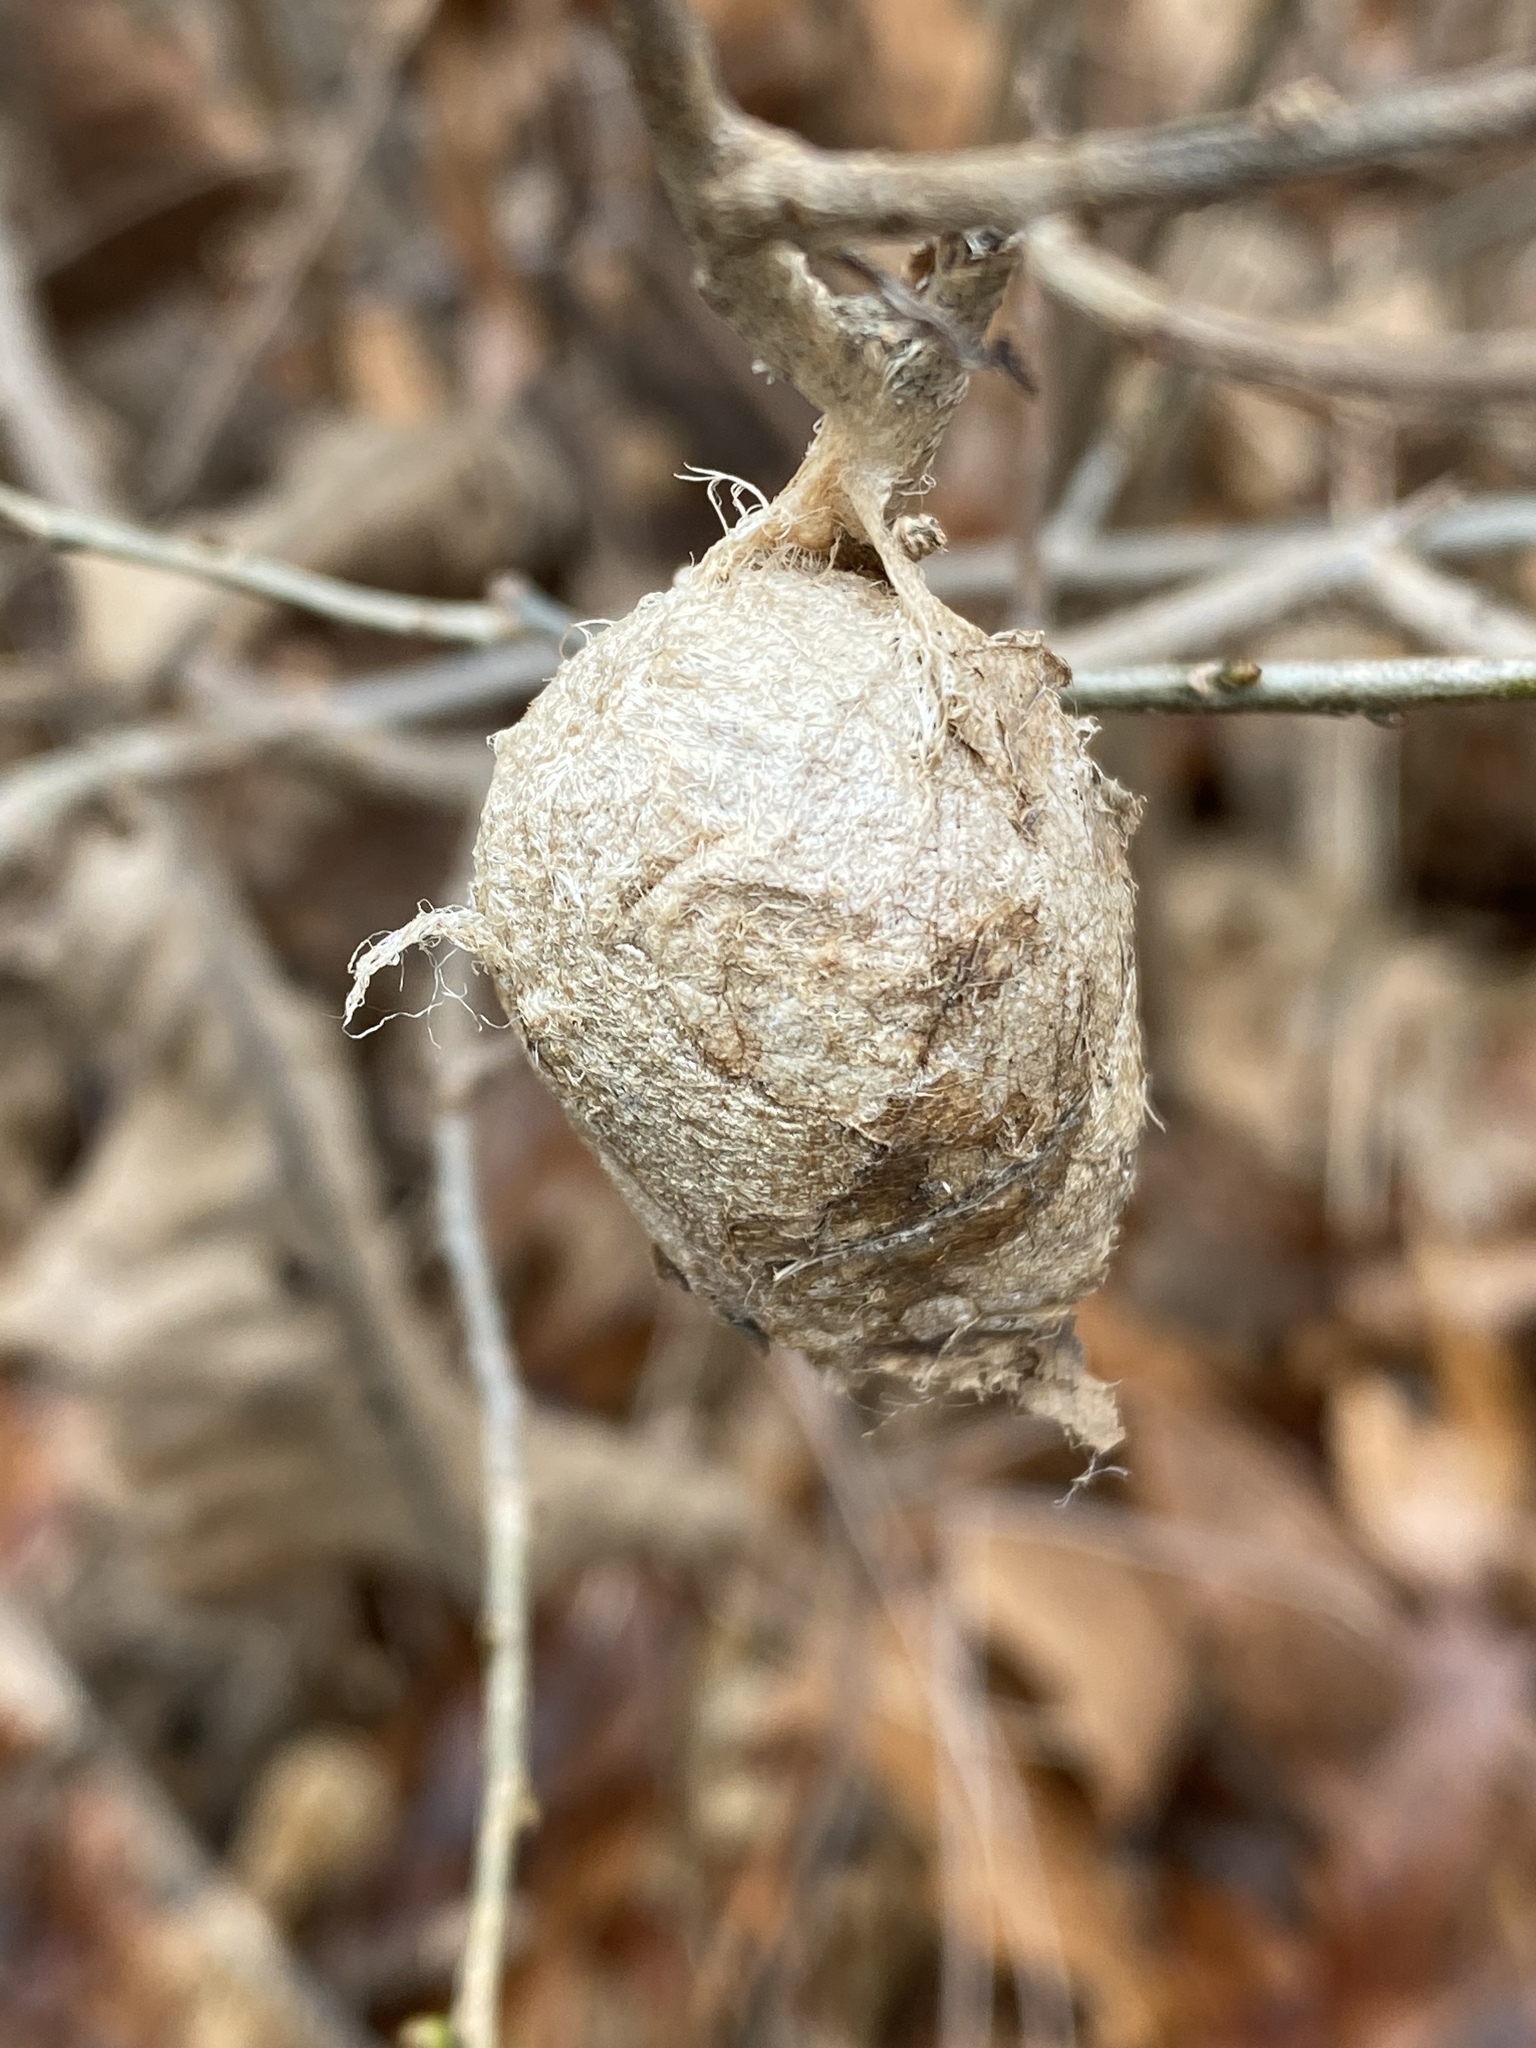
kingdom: Animalia
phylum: Arthropoda
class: Insecta
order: Lepidoptera
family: Saturniidae
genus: Antheraea
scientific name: Antheraea polyphemus
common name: Polyphemus moth
